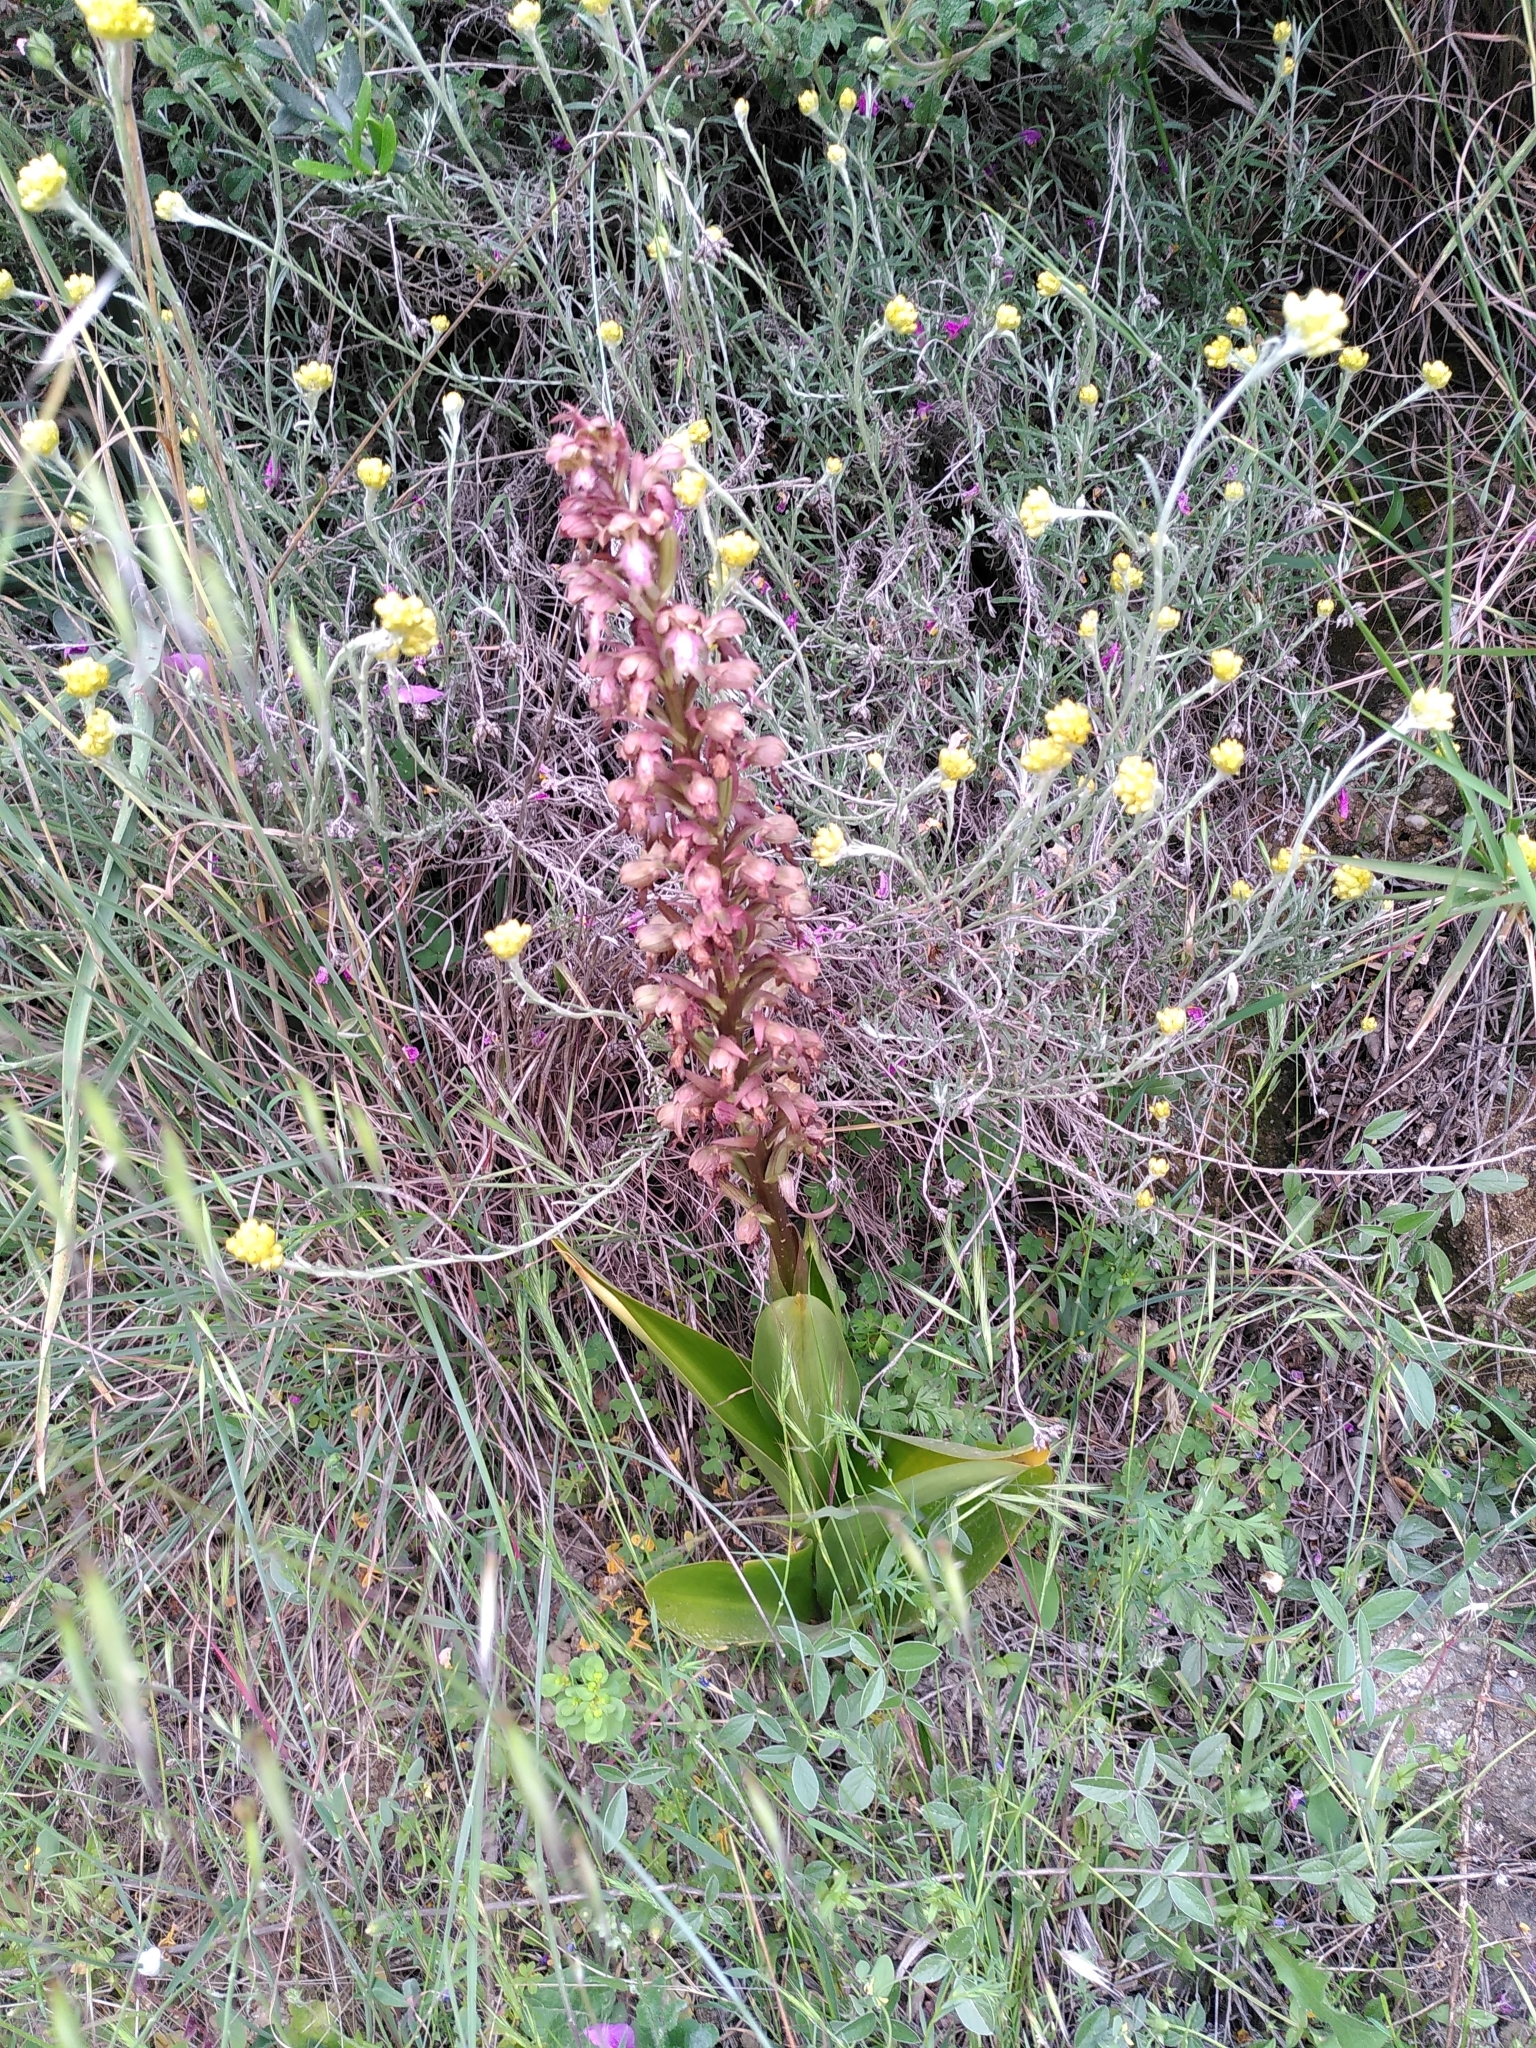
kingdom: Plantae
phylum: Tracheophyta
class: Liliopsida
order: Asparagales
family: Orchidaceae
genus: Himantoglossum
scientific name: Himantoglossum robertianum
